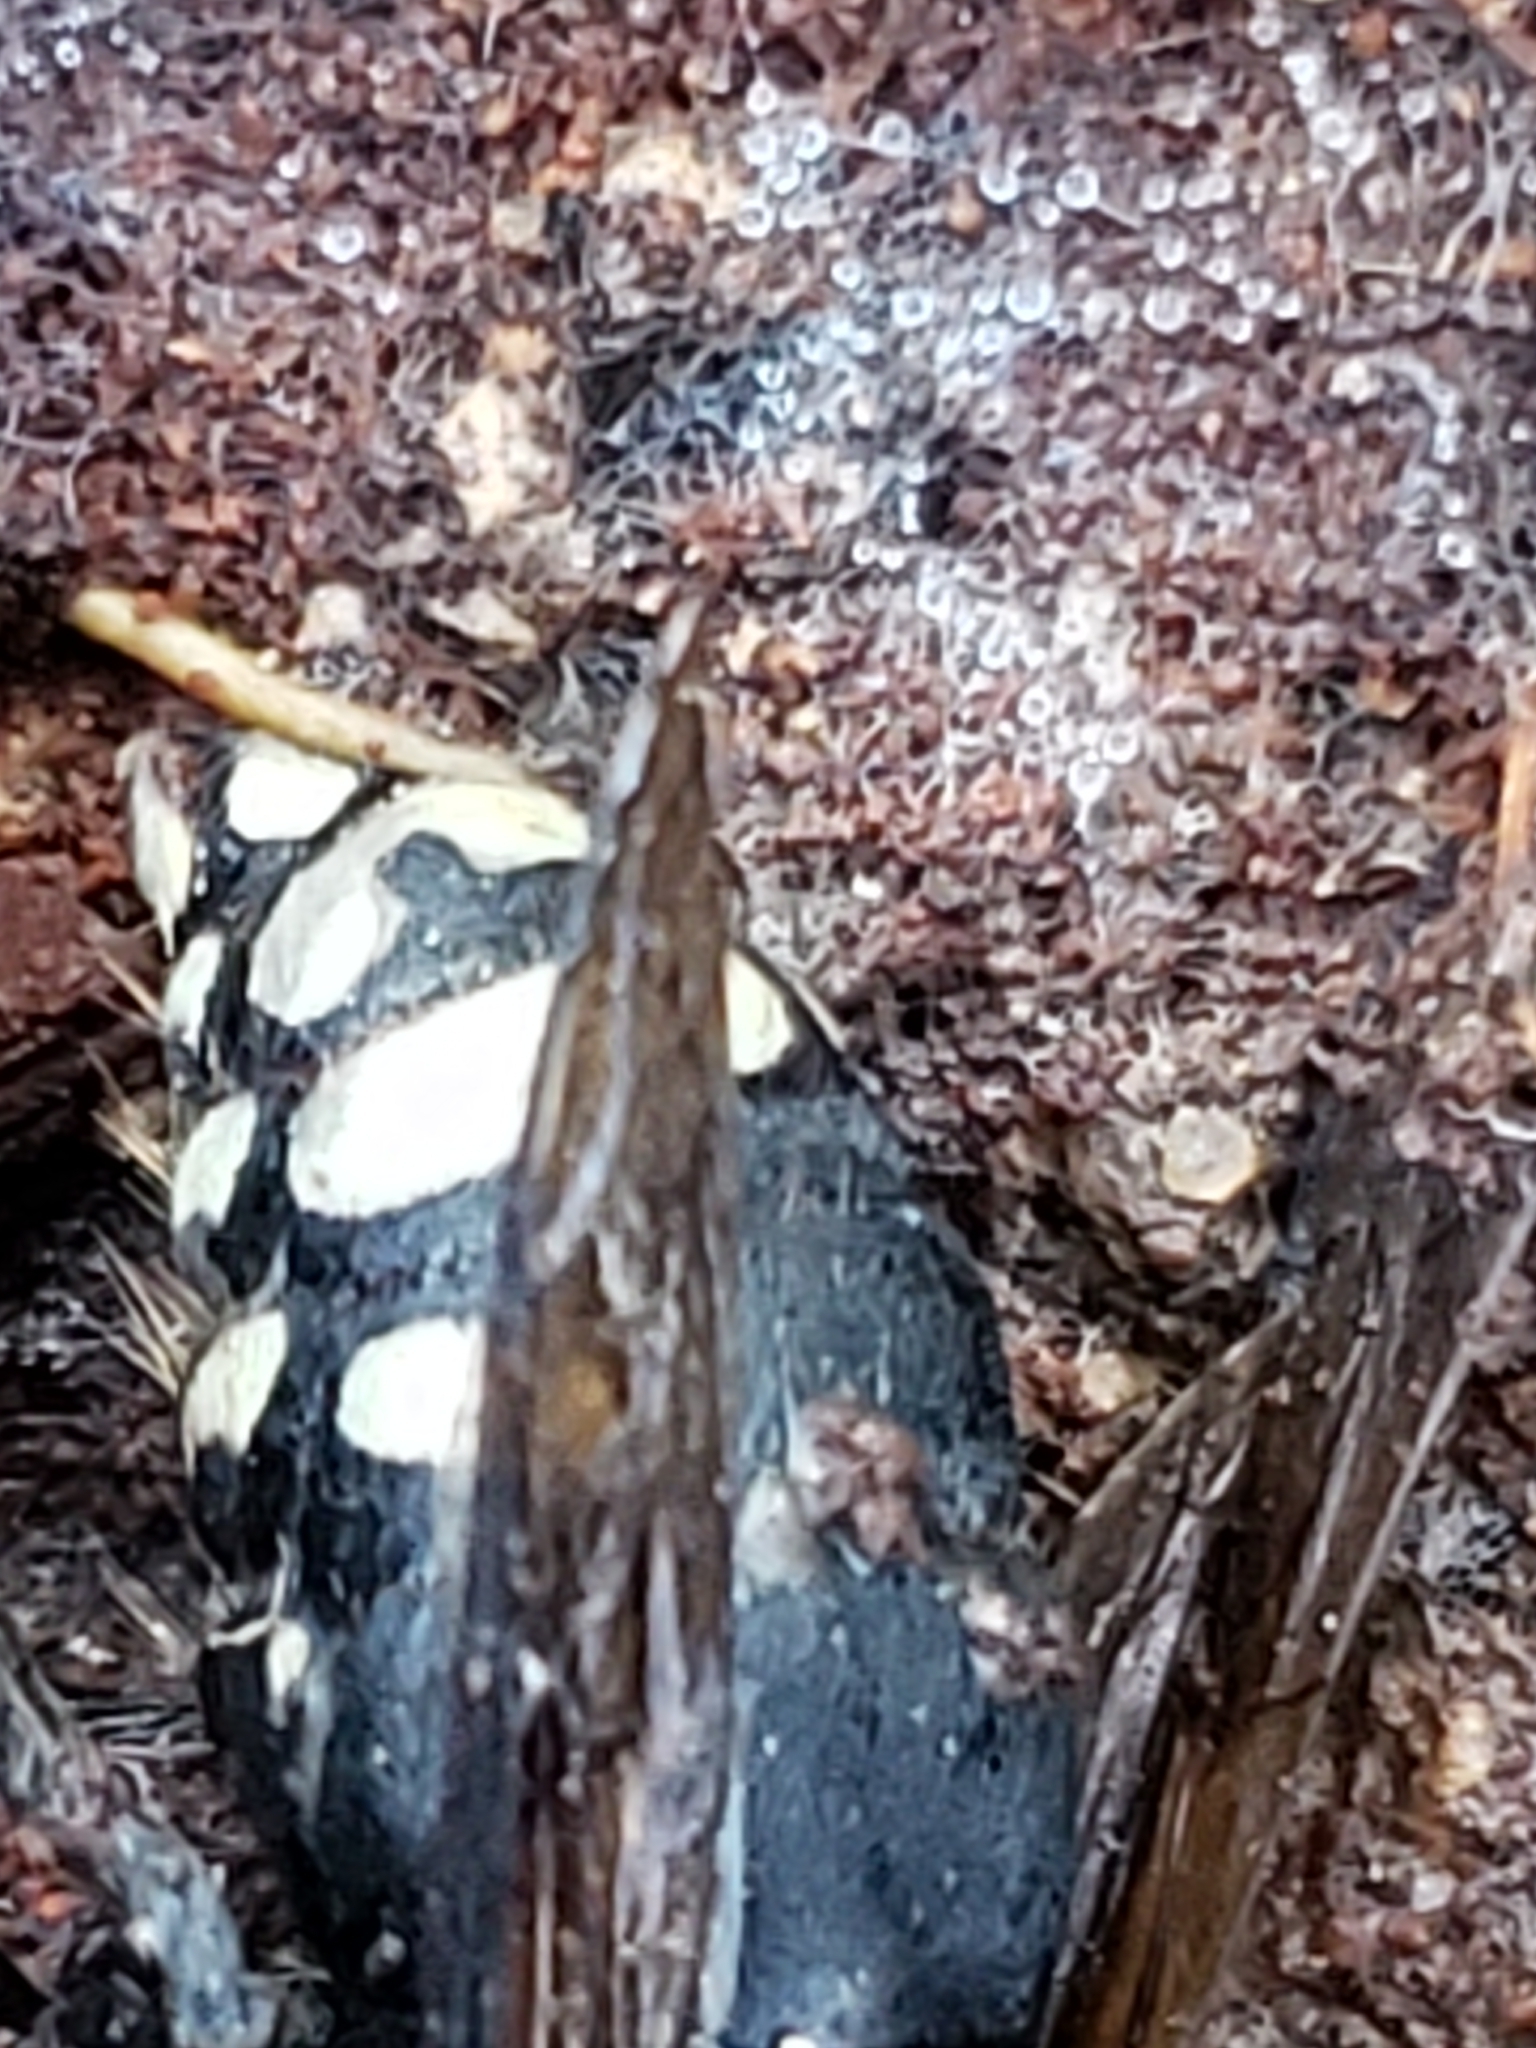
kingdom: Animalia
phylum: Arthropoda
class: Insecta
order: Hymenoptera
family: Vespidae
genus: Dolichovespula
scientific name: Dolichovespula maculata
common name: Bald-faced hornet
